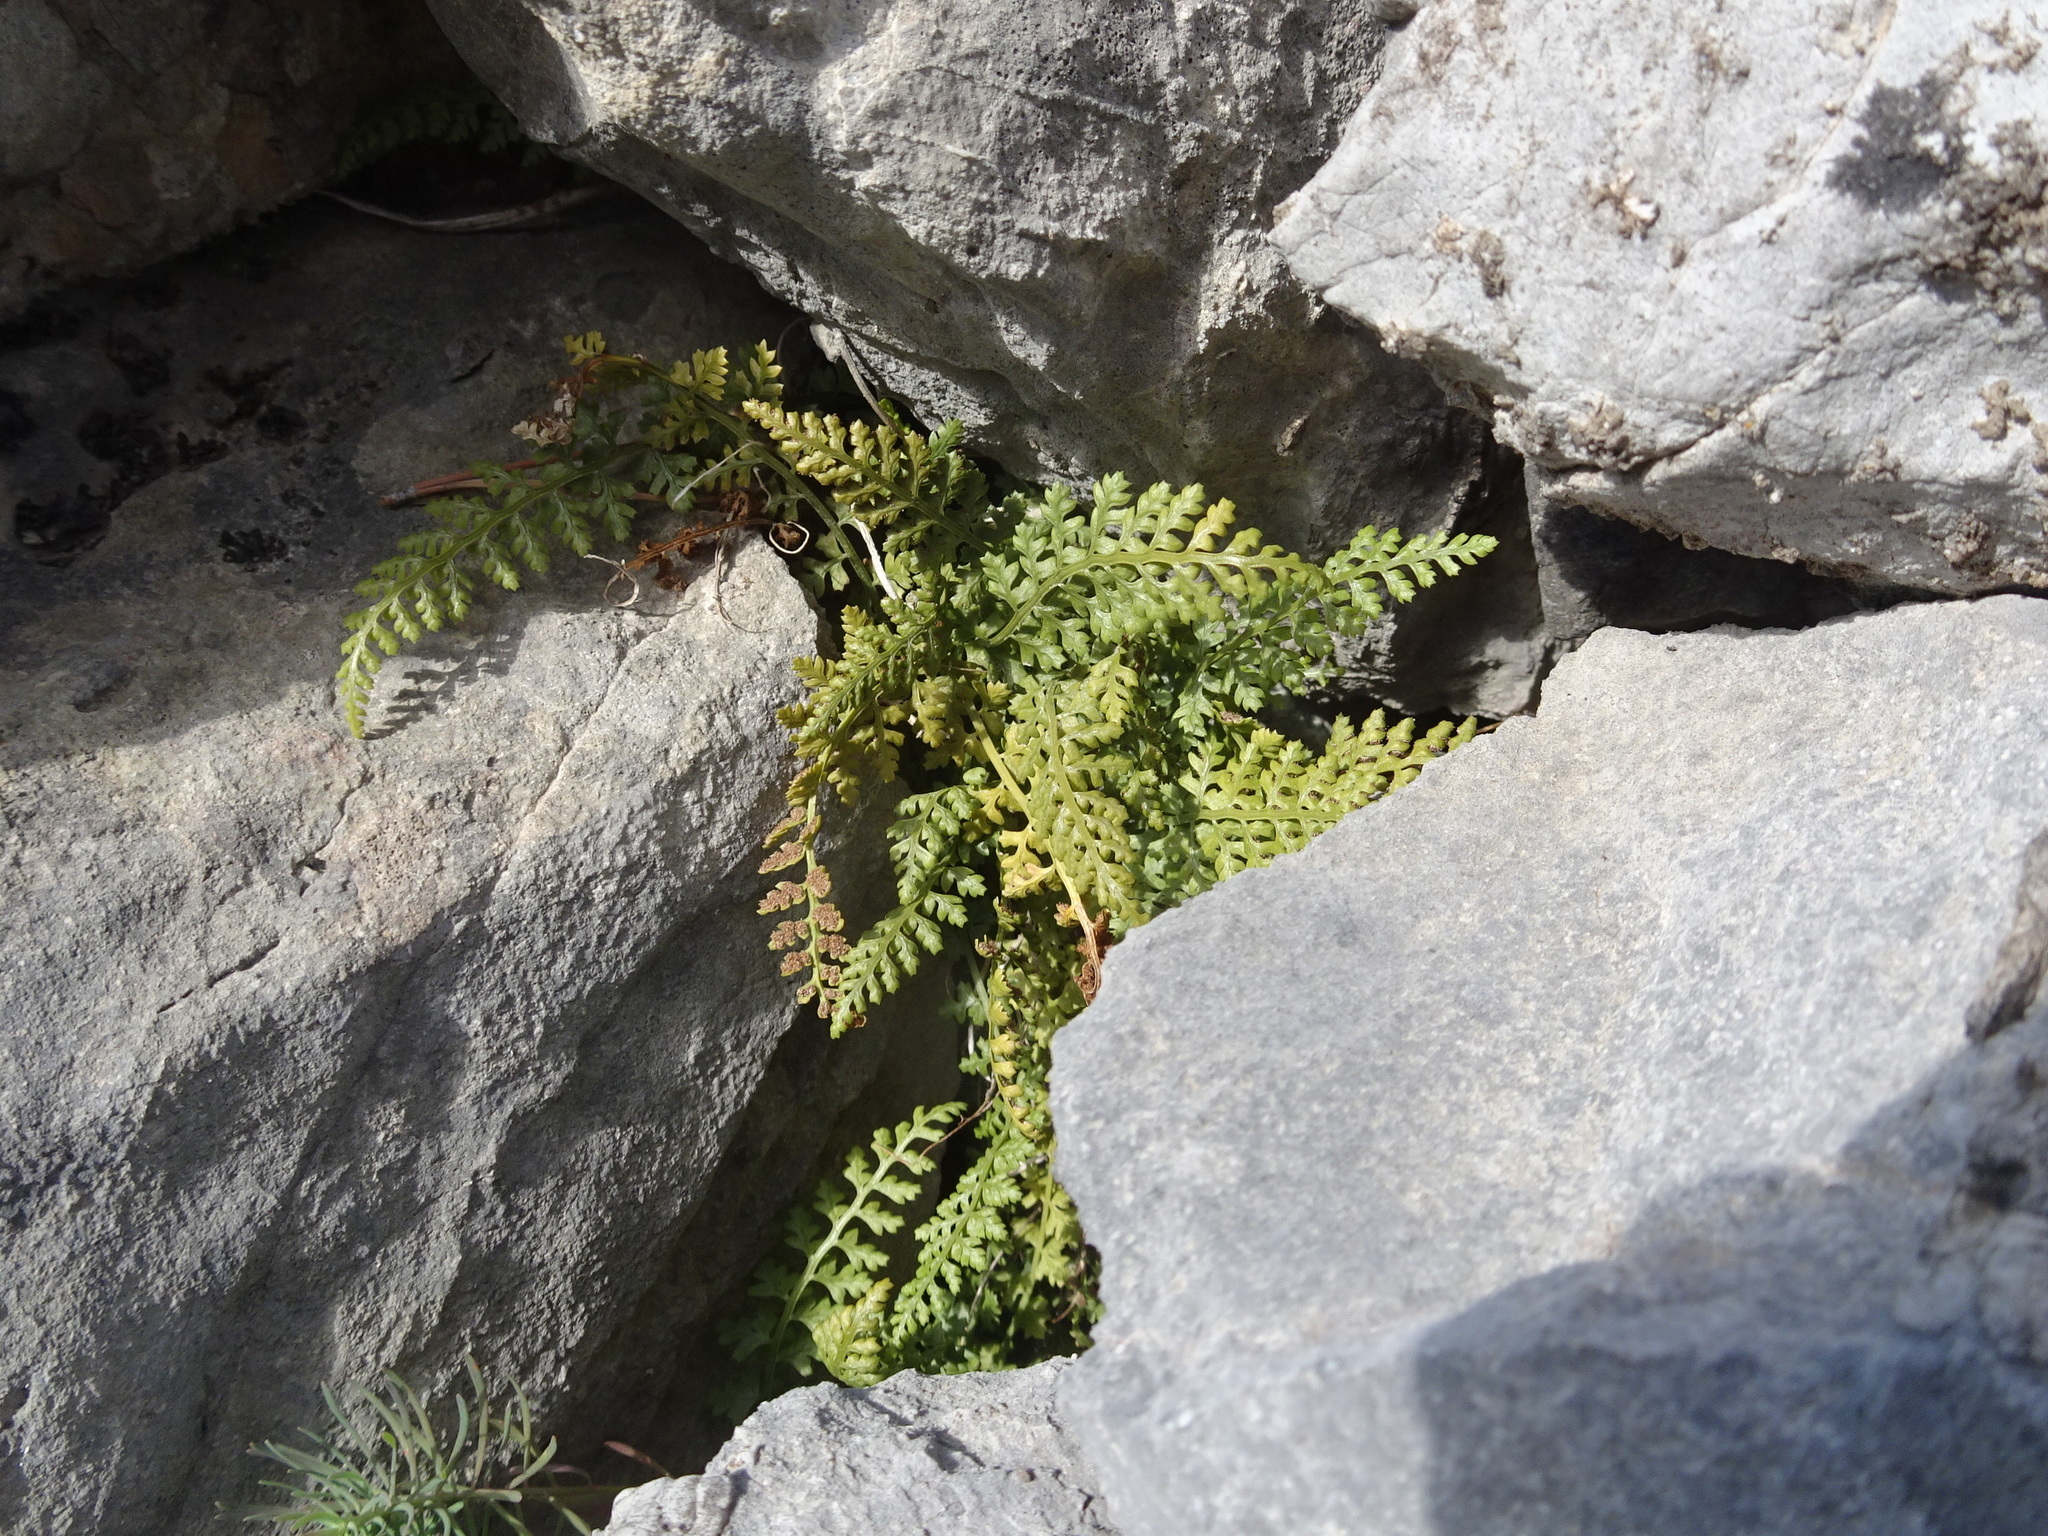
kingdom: Plantae
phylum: Tracheophyta
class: Polypodiopsida
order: Polypodiales
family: Aspleniaceae
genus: Asplenium
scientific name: Asplenium
